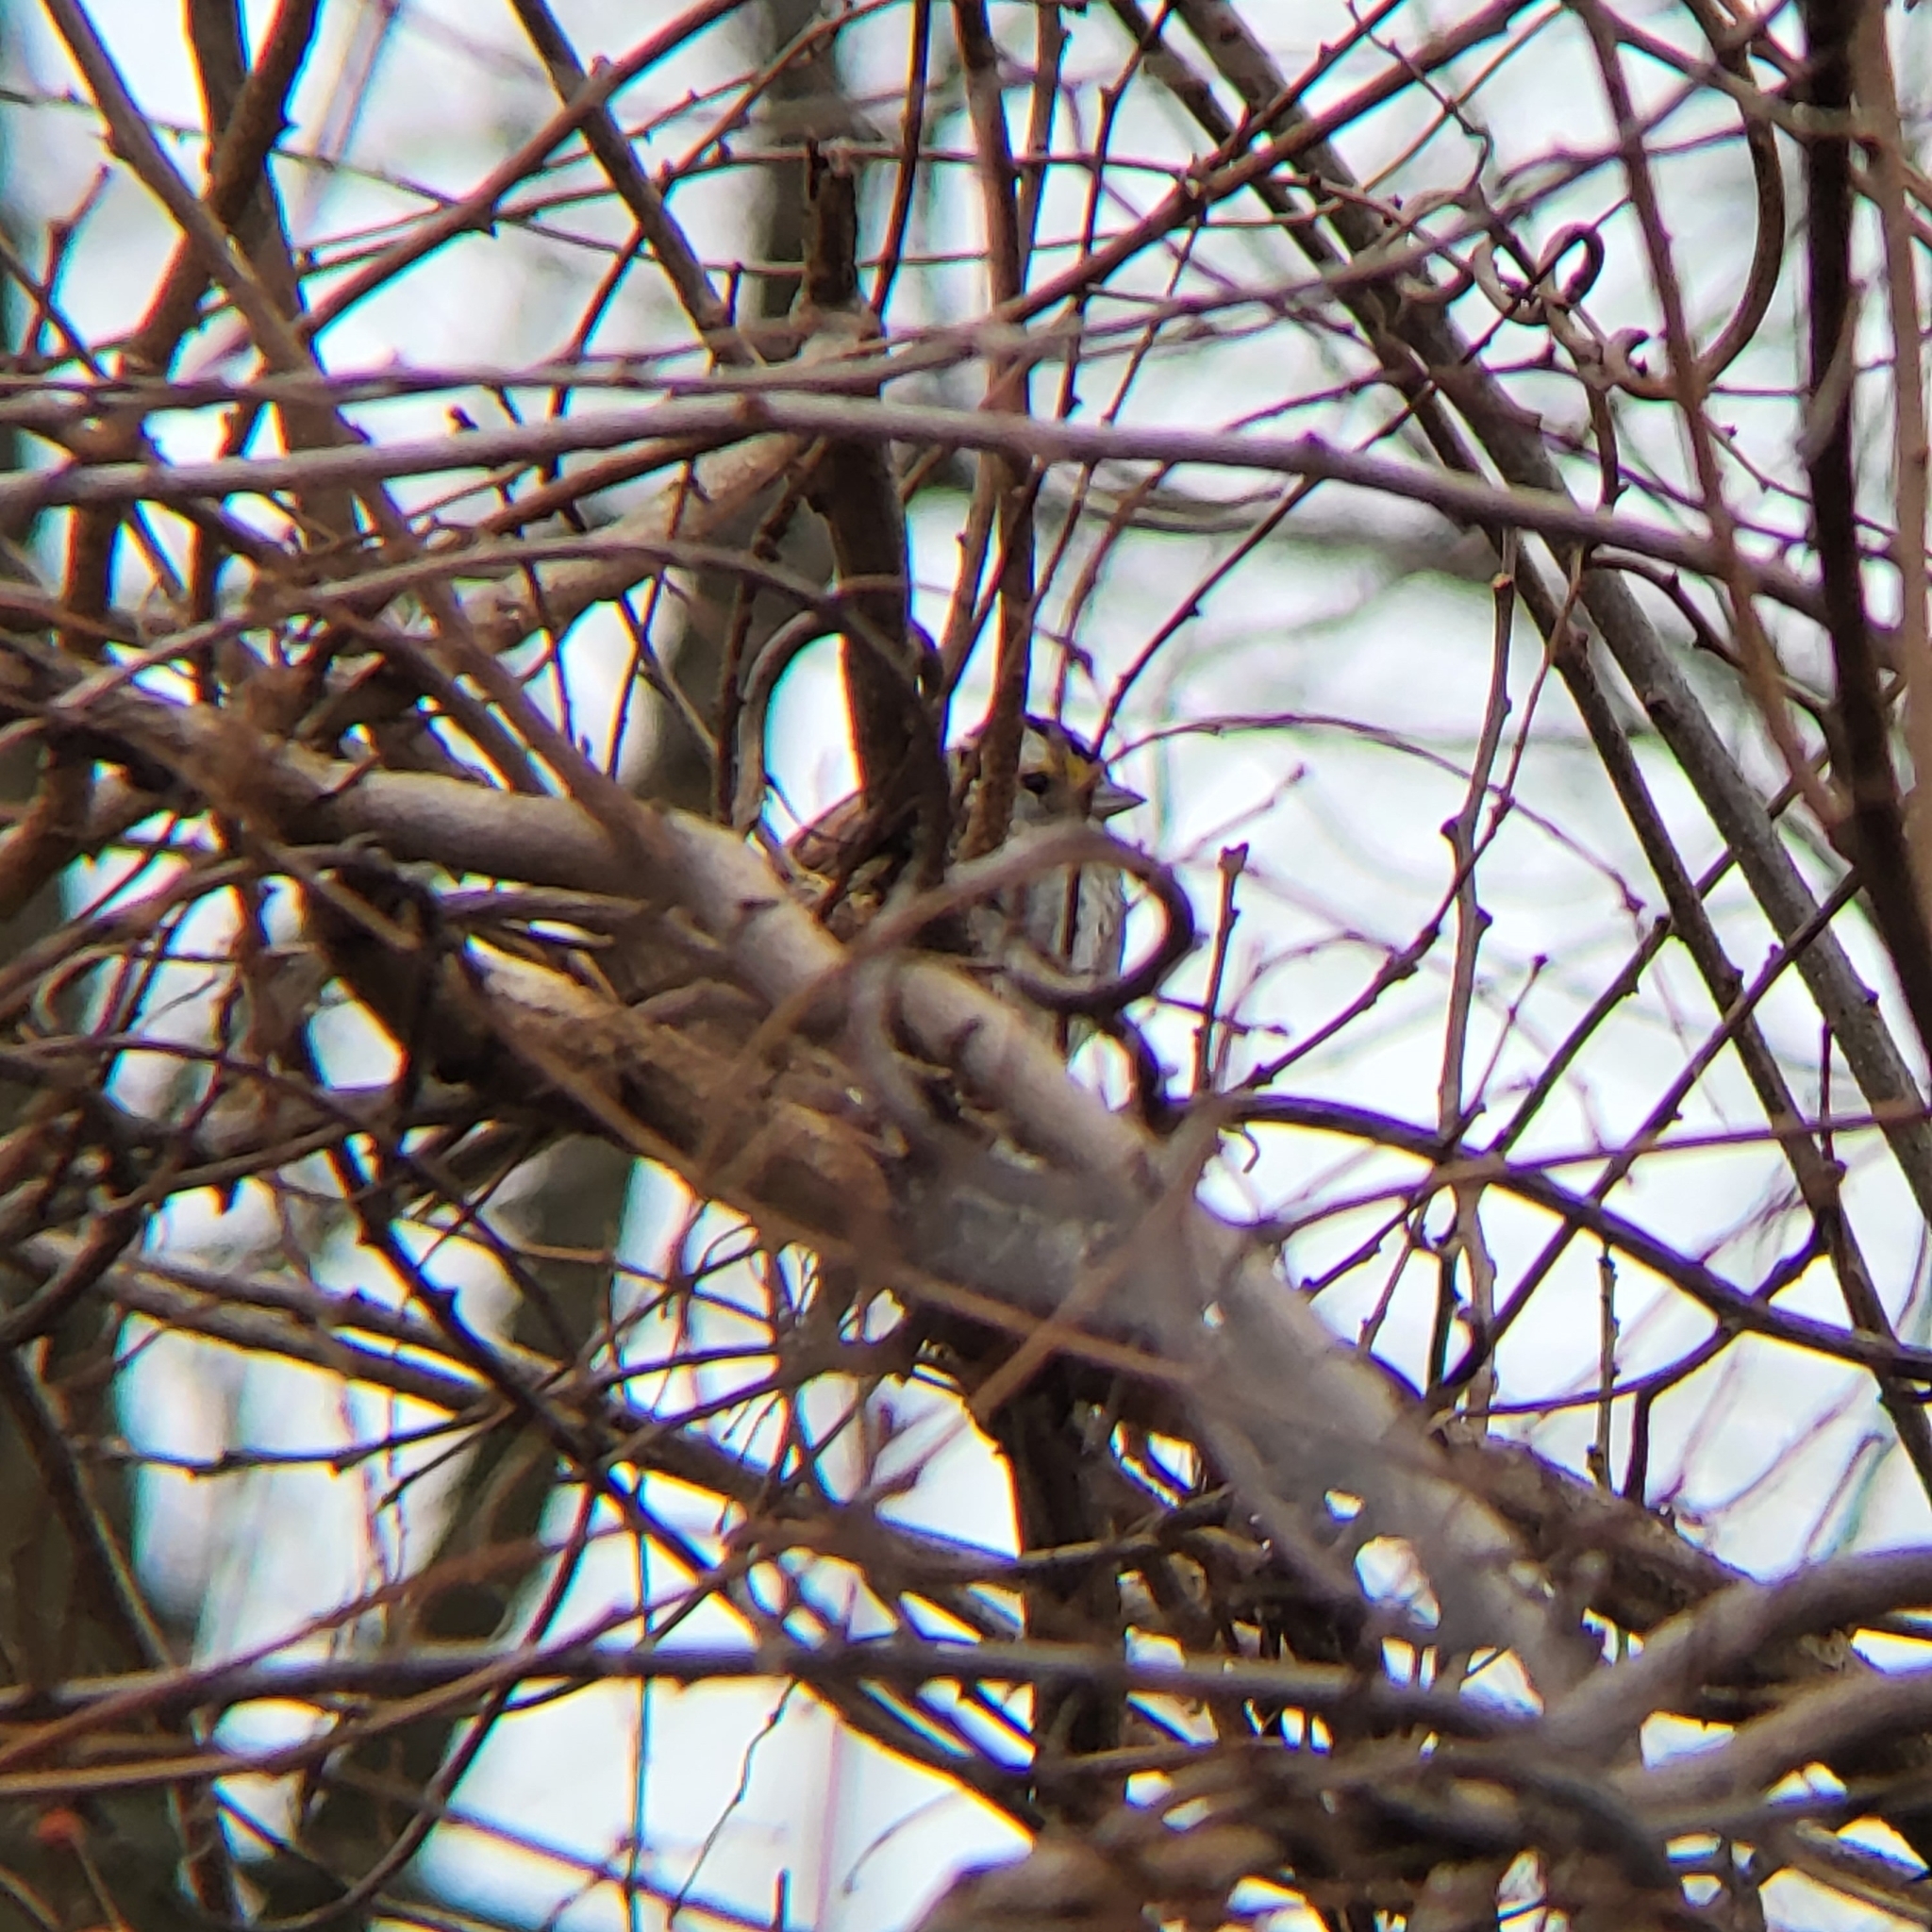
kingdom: Animalia
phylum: Chordata
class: Aves
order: Passeriformes
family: Passerellidae
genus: Zonotrichia
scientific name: Zonotrichia albicollis
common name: White-throated sparrow
